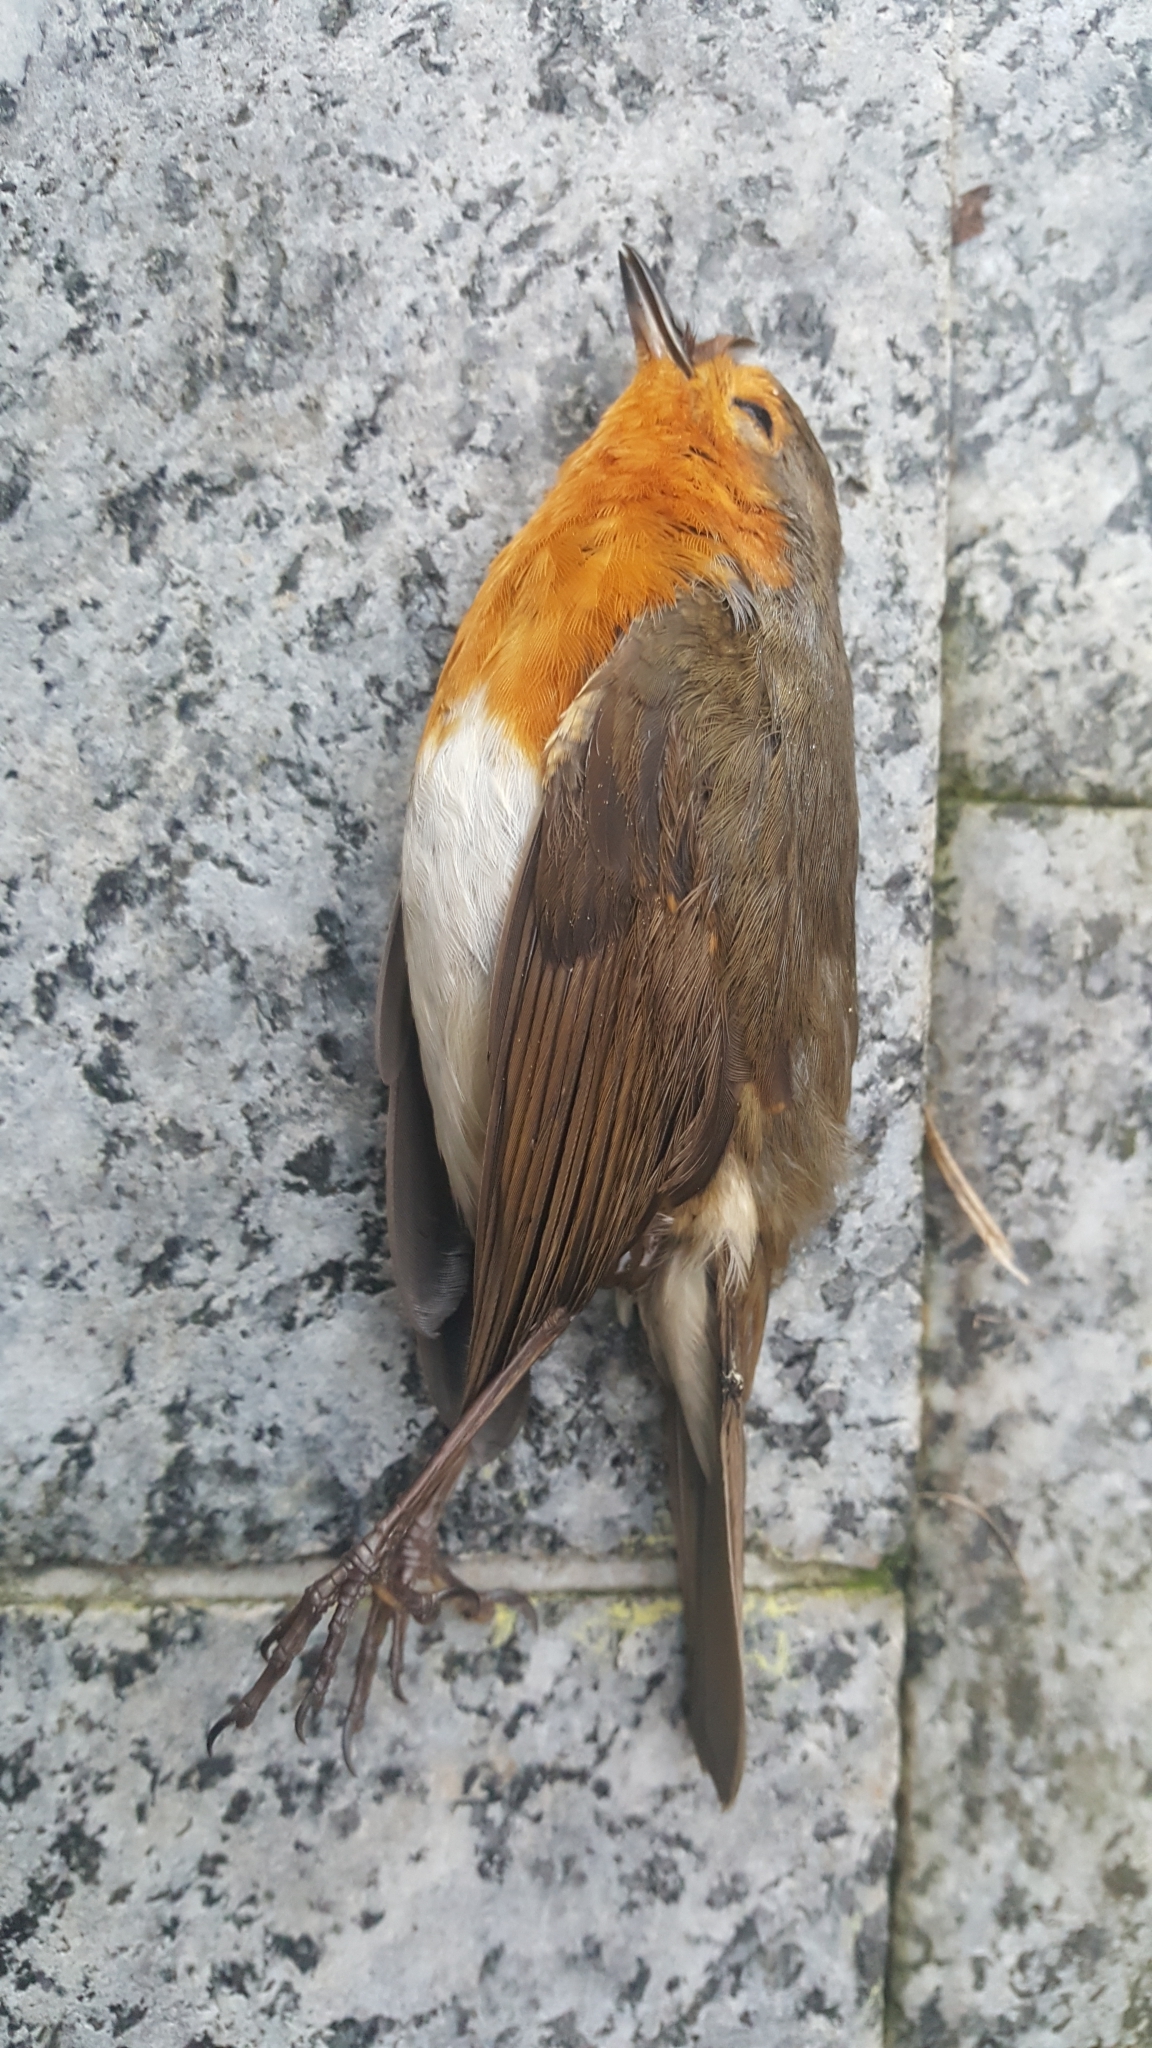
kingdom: Animalia
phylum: Chordata
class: Aves
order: Passeriformes
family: Muscicapidae
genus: Erithacus
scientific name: Erithacus rubecula
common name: European robin
